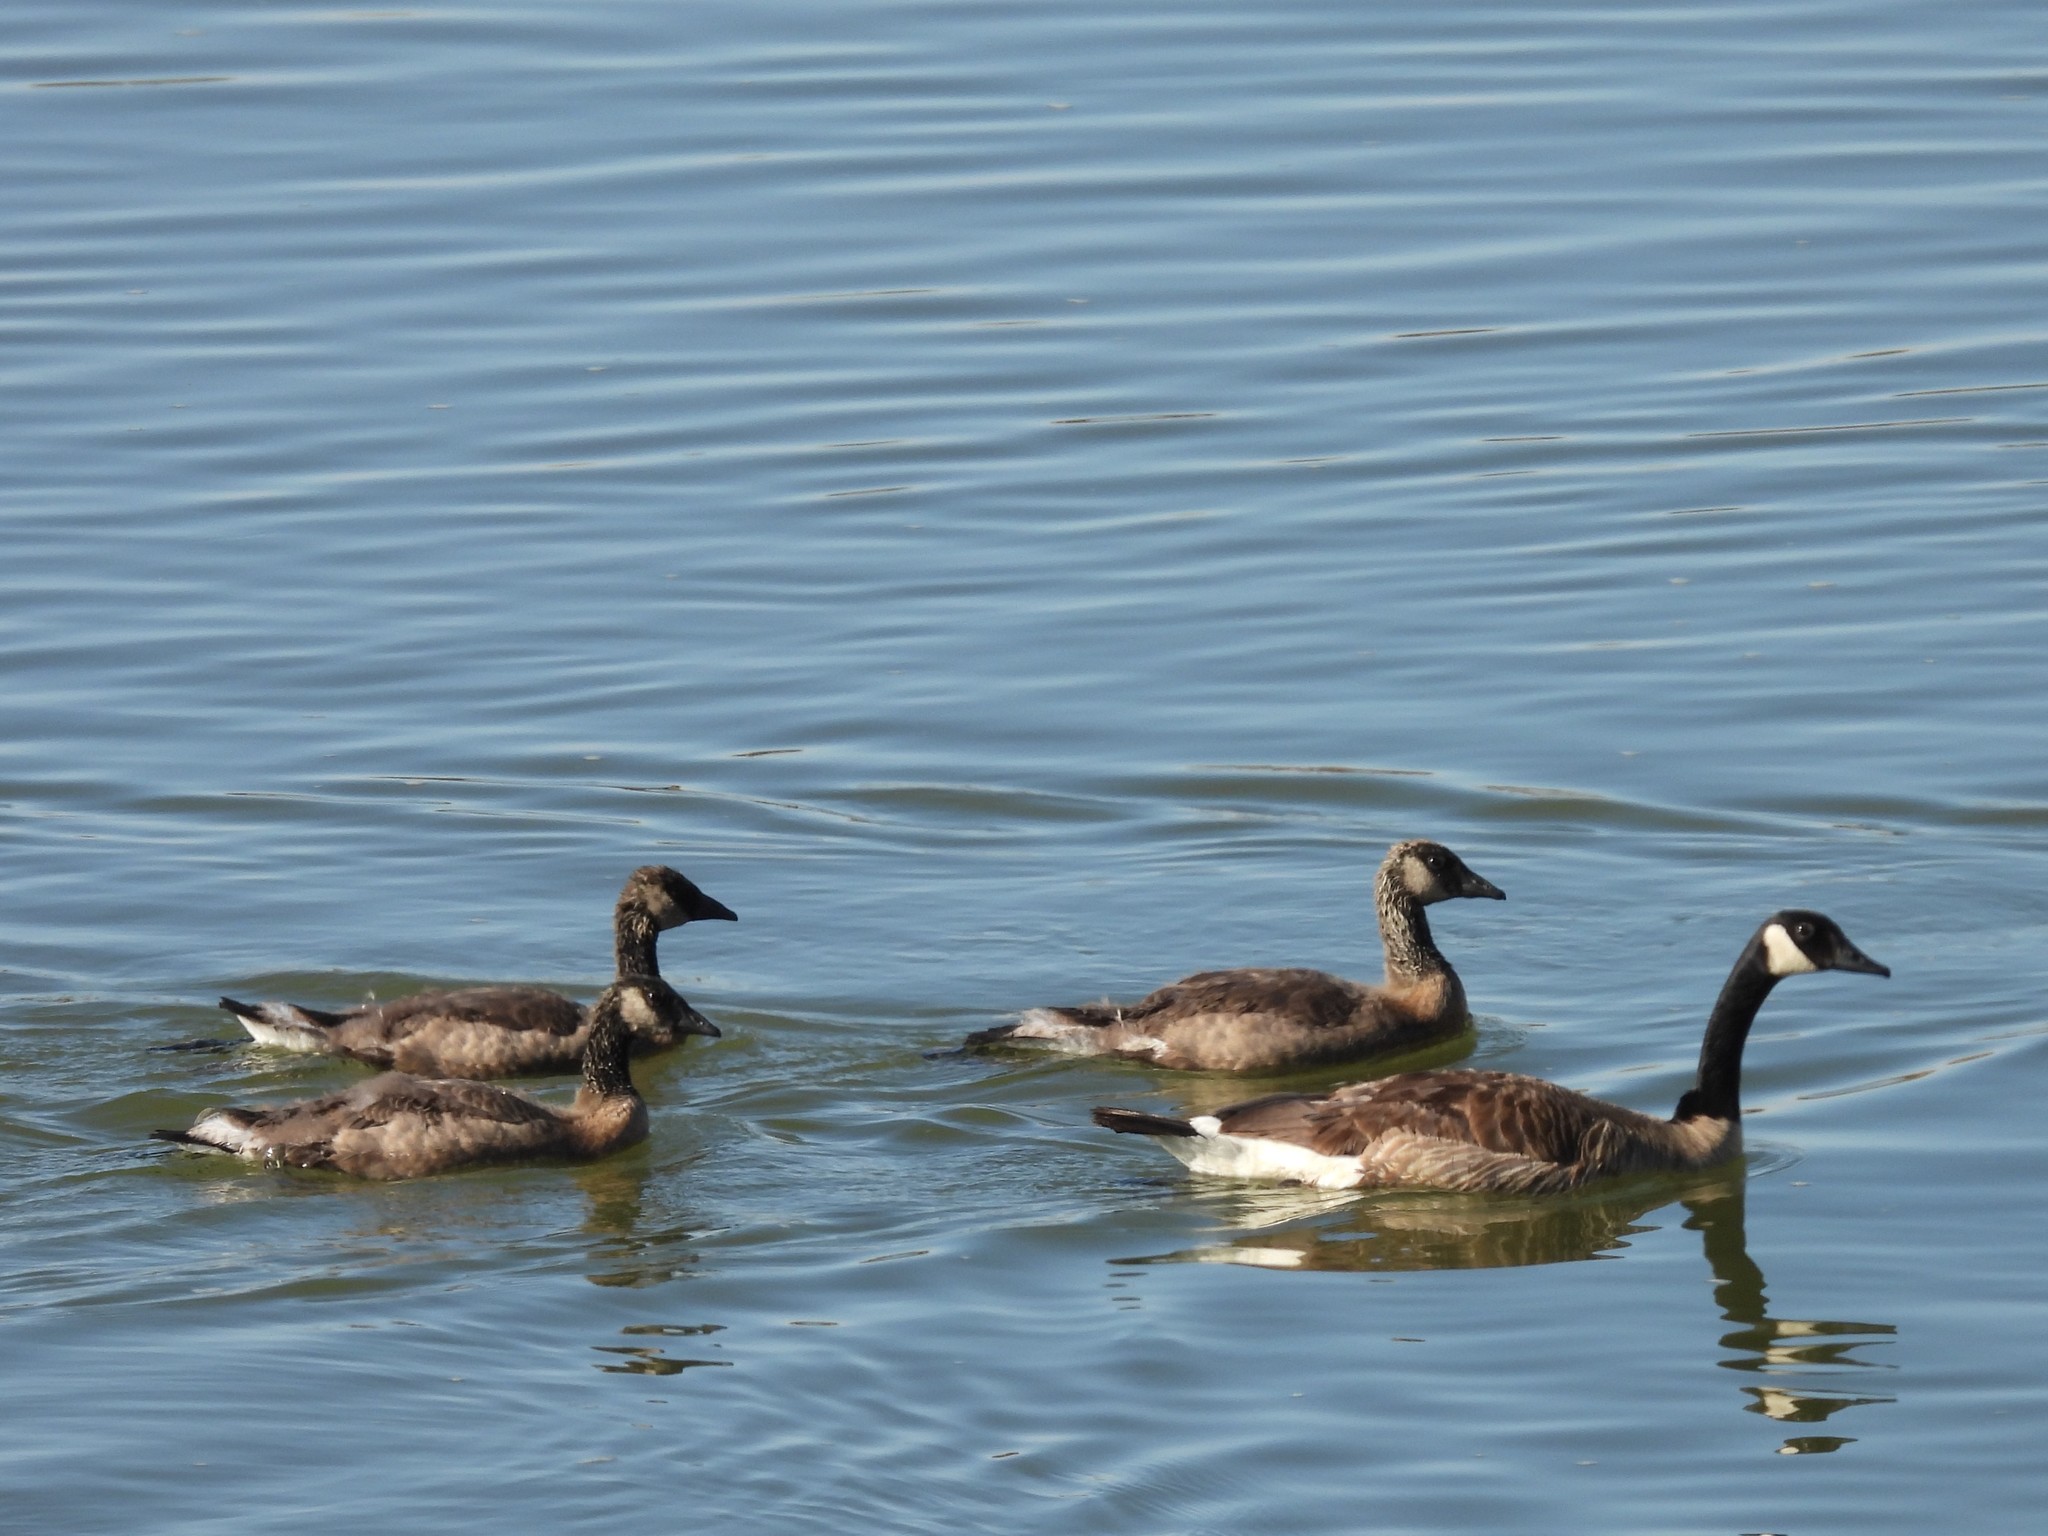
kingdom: Animalia
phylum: Chordata
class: Aves
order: Anseriformes
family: Anatidae
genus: Branta
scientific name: Branta canadensis
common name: Canada goose
